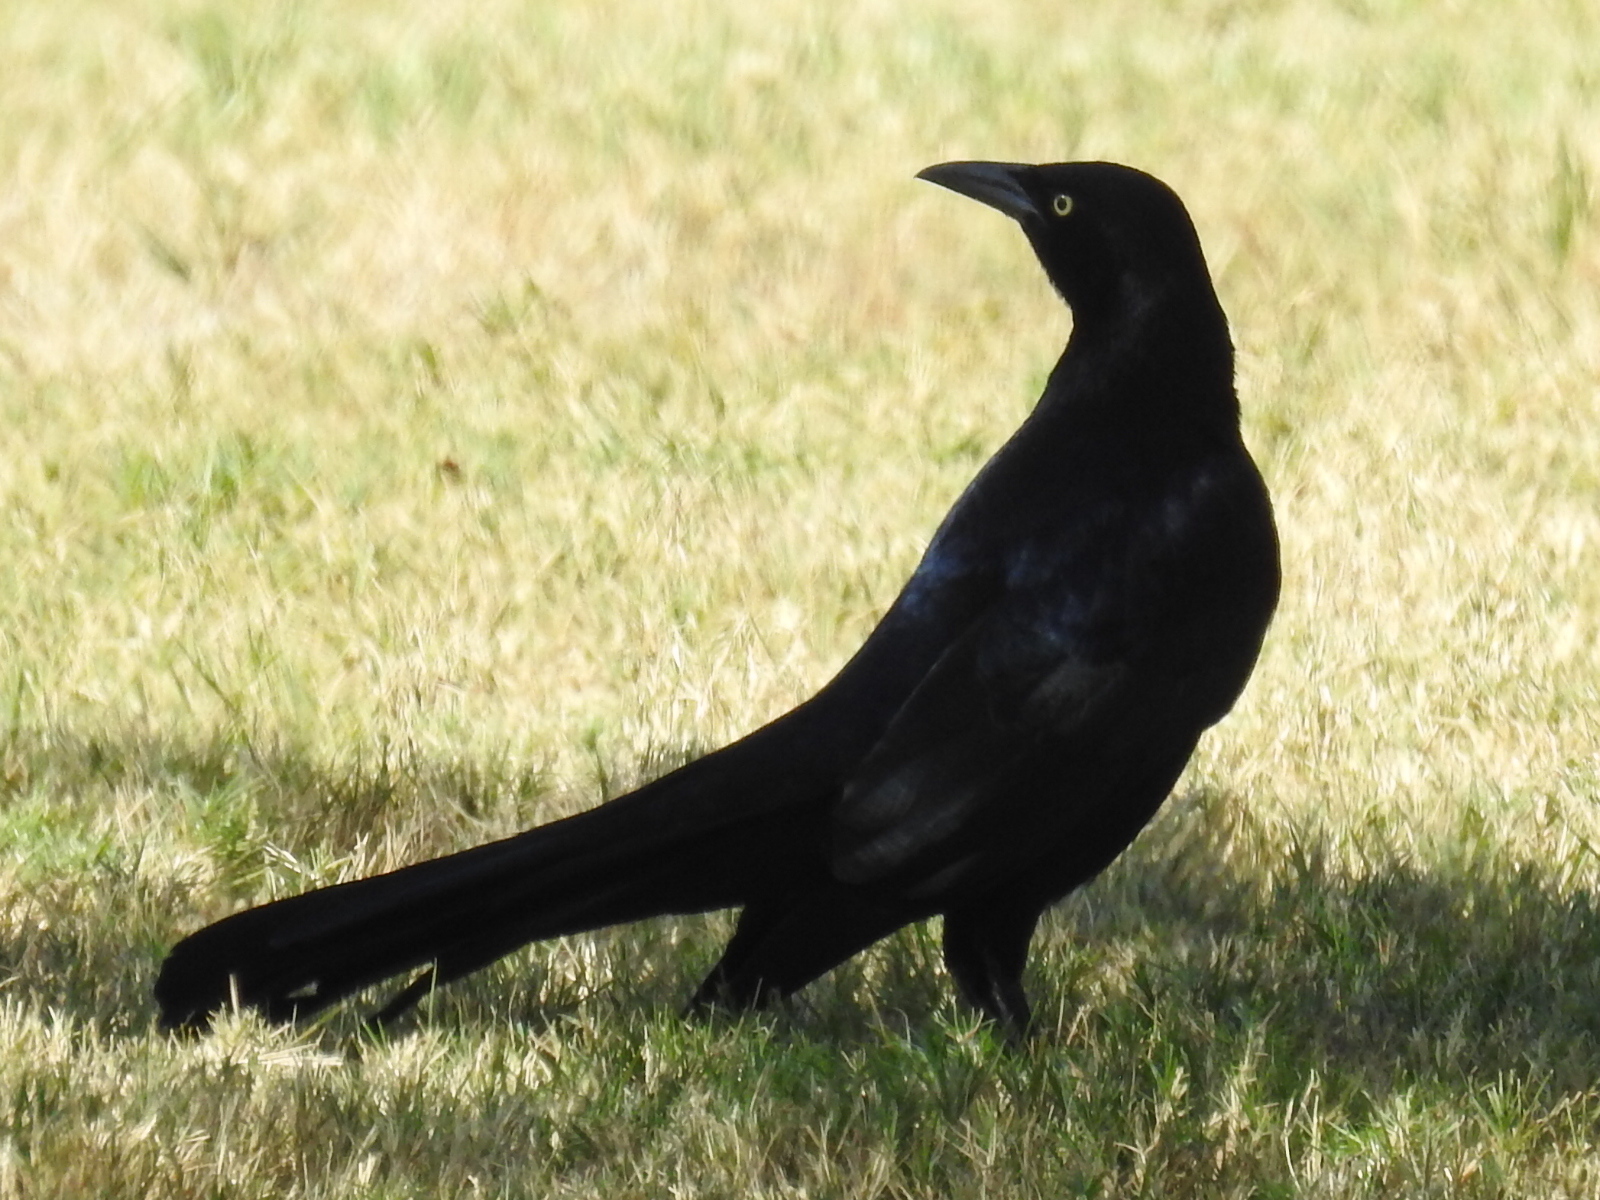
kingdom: Animalia
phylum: Chordata
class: Aves
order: Passeriformes
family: Icteridae
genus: Quiscalus
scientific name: Quiscalus mexicanus
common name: Great-tailed grackle
